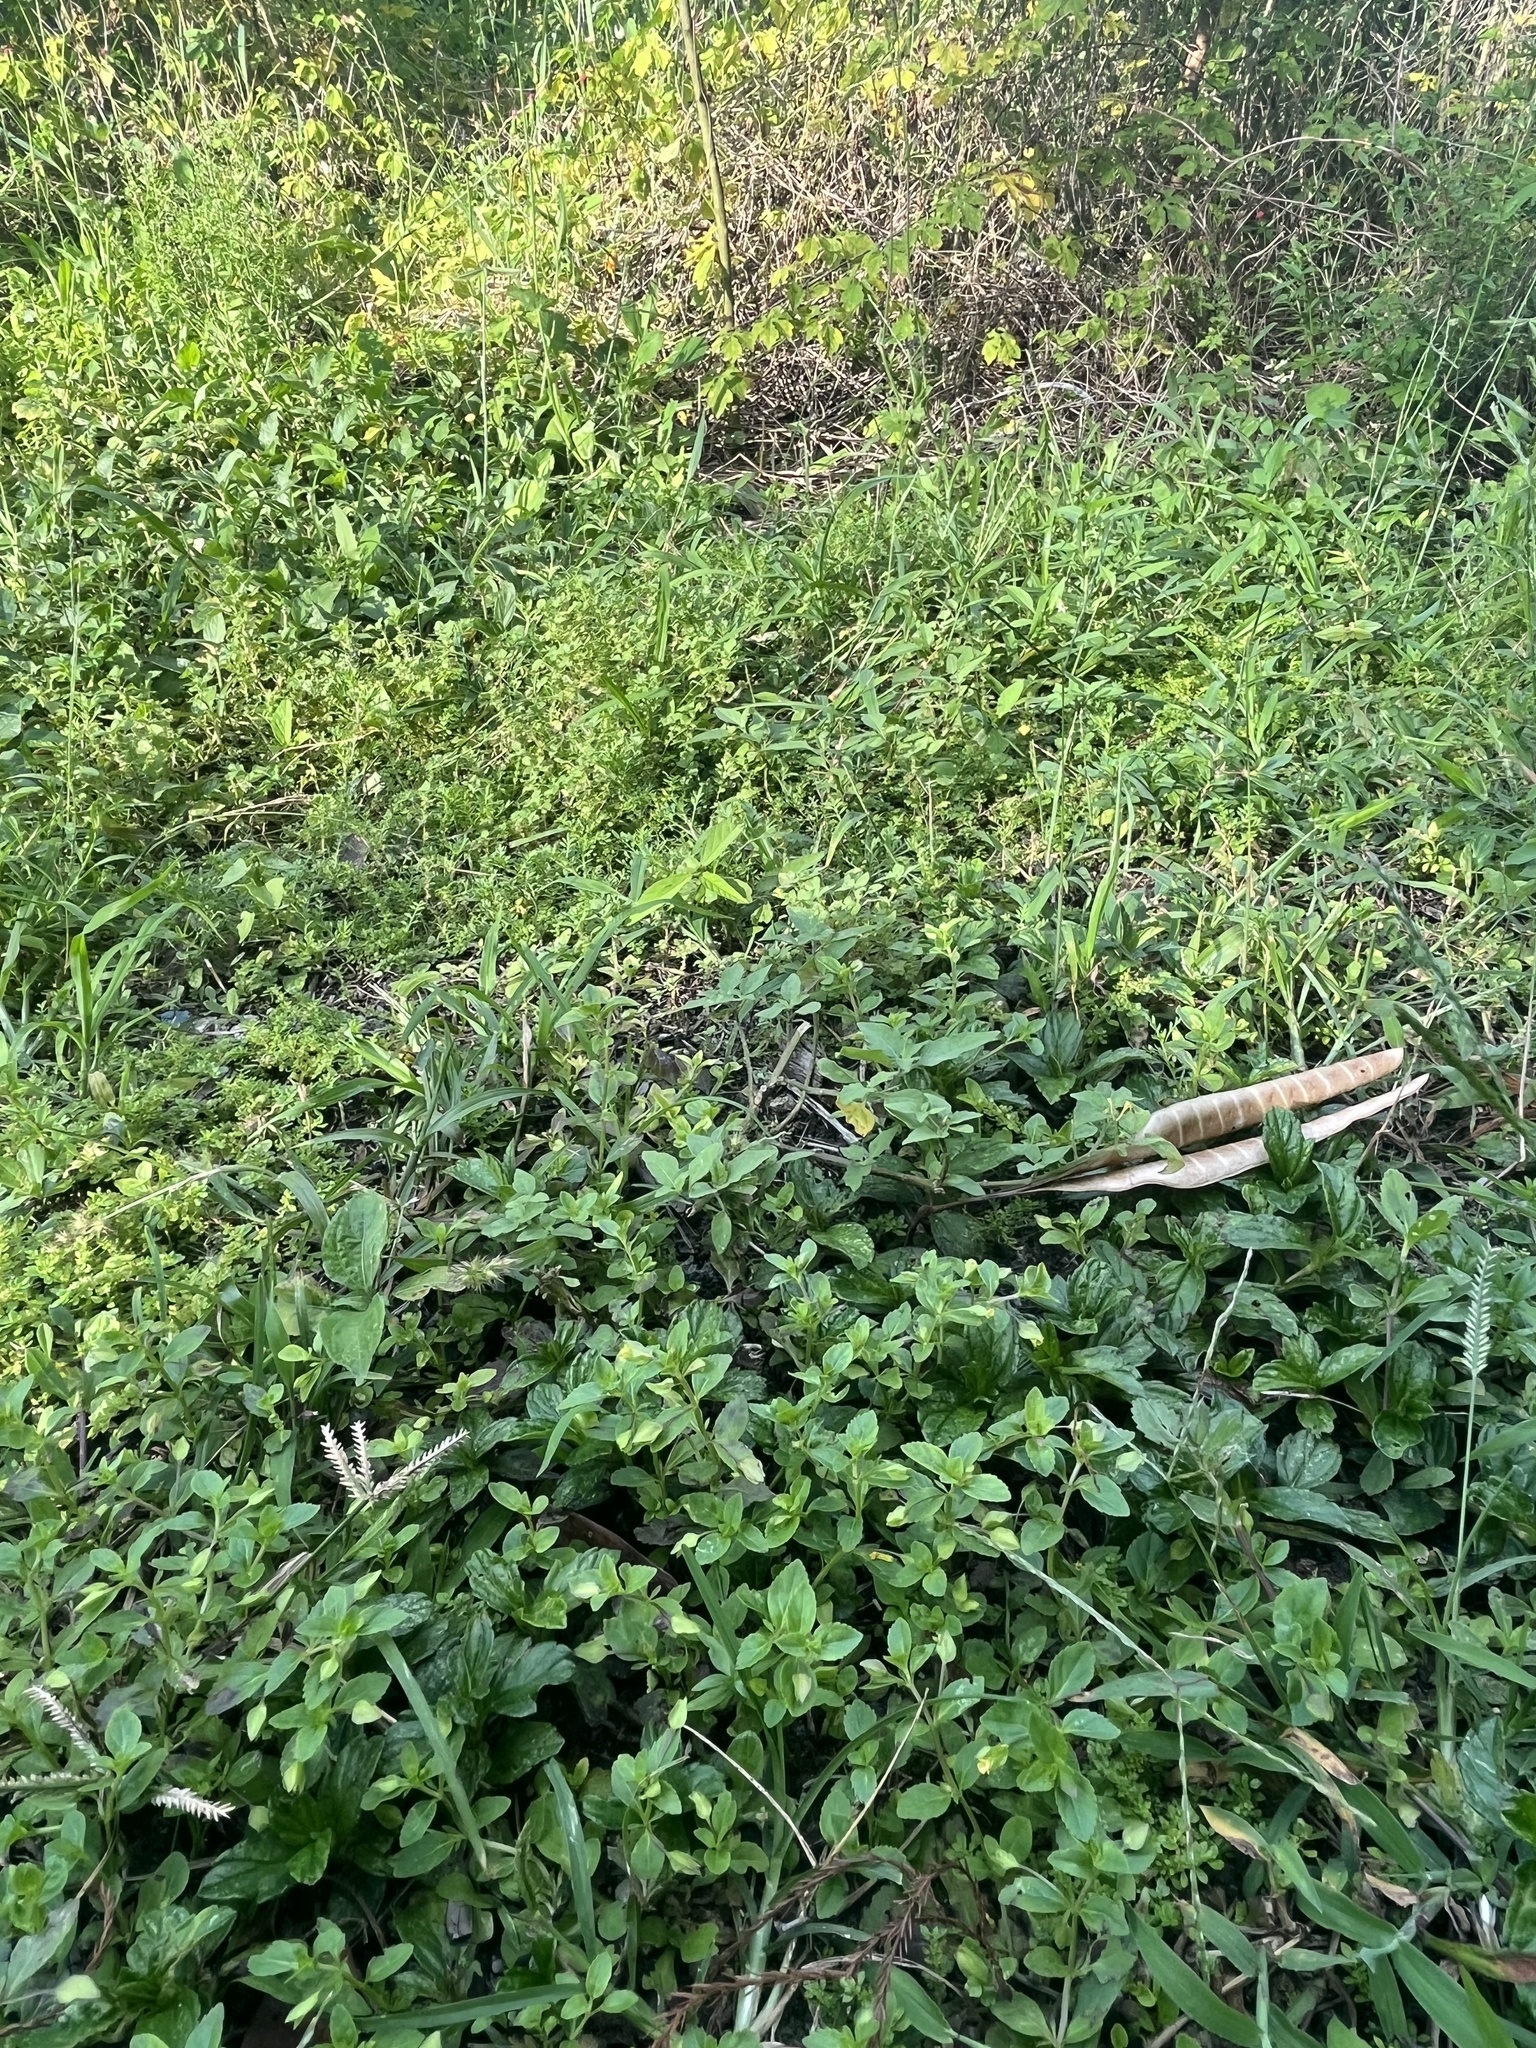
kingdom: Plantae
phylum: Tracheophyta
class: Magnoliopsida
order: Lamiales
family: Plantaginaceae
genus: Mecardonia
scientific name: Mecardonia procumbens
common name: Baby jump-up
